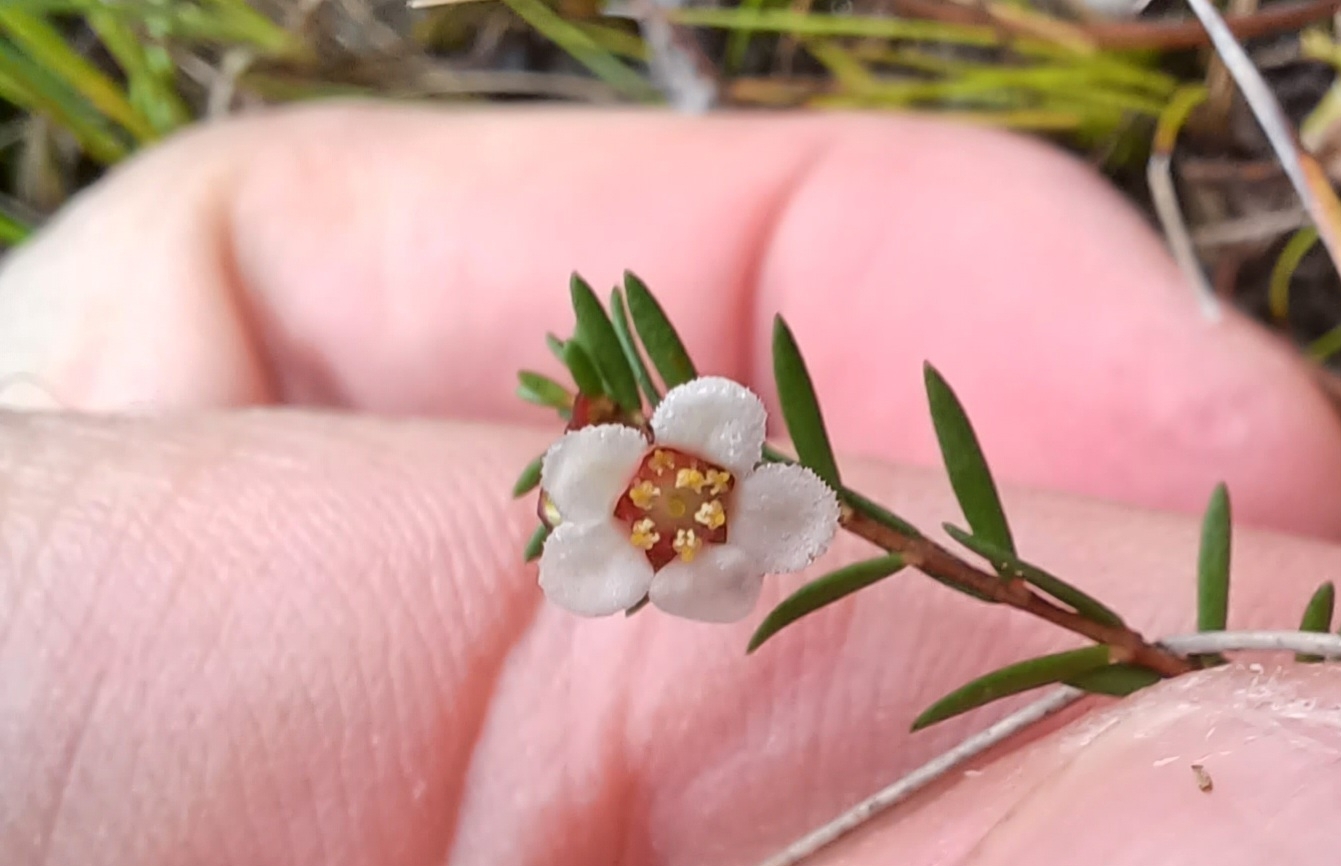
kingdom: Plantae
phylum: Tracheophyta
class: Magnoliopsida
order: Myrtales
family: Myrtaceae
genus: Euryomyrtus
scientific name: Euryomyrtus ramosissima
